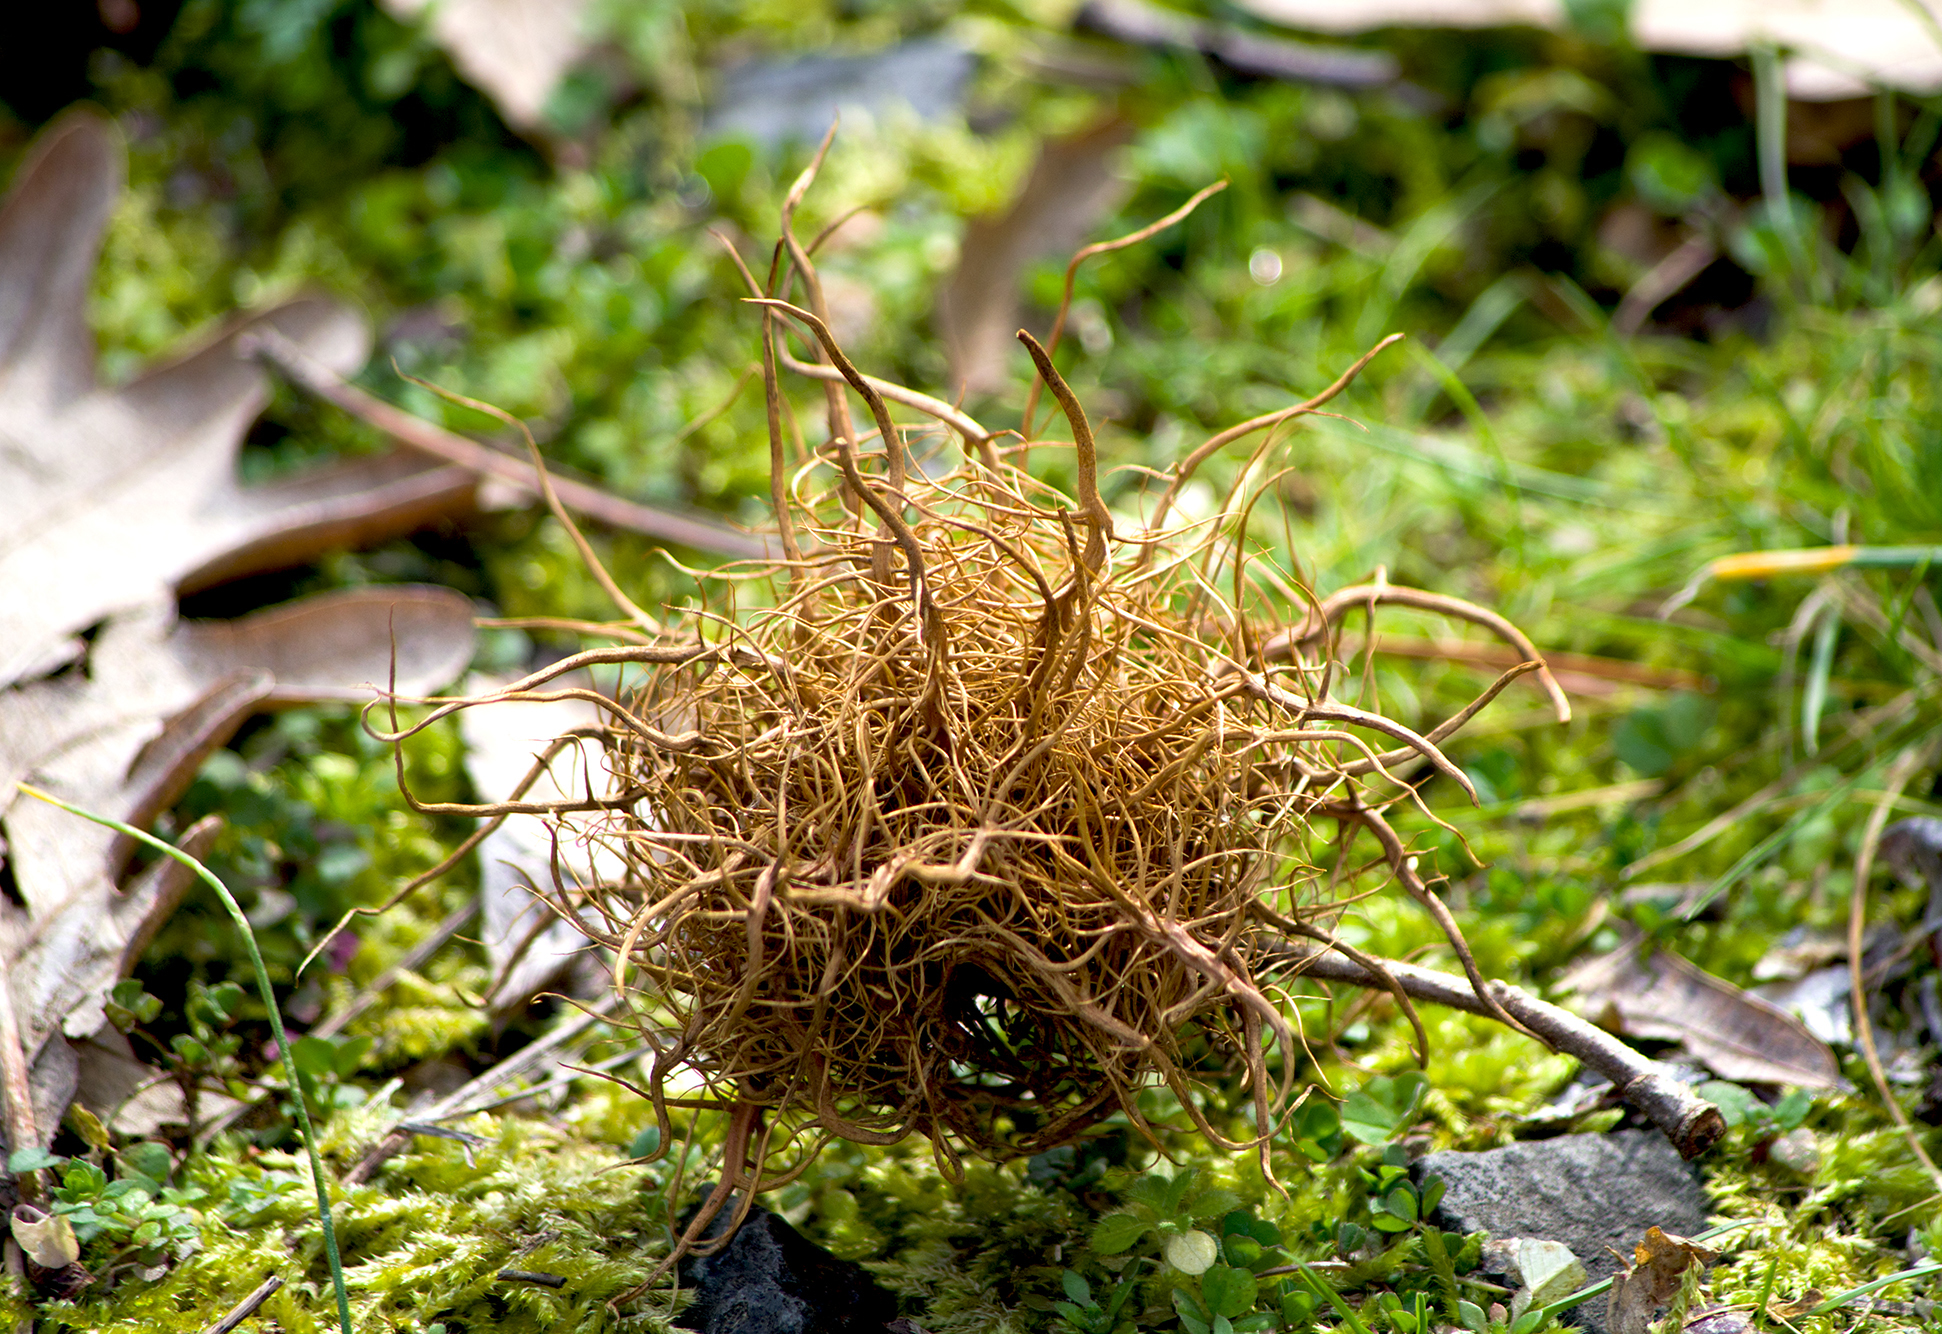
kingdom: Animalia
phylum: Arthropoda
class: Insecta
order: Hymenoptera
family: Cynipidae
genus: Andricus
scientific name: Andricus caputmedusae
